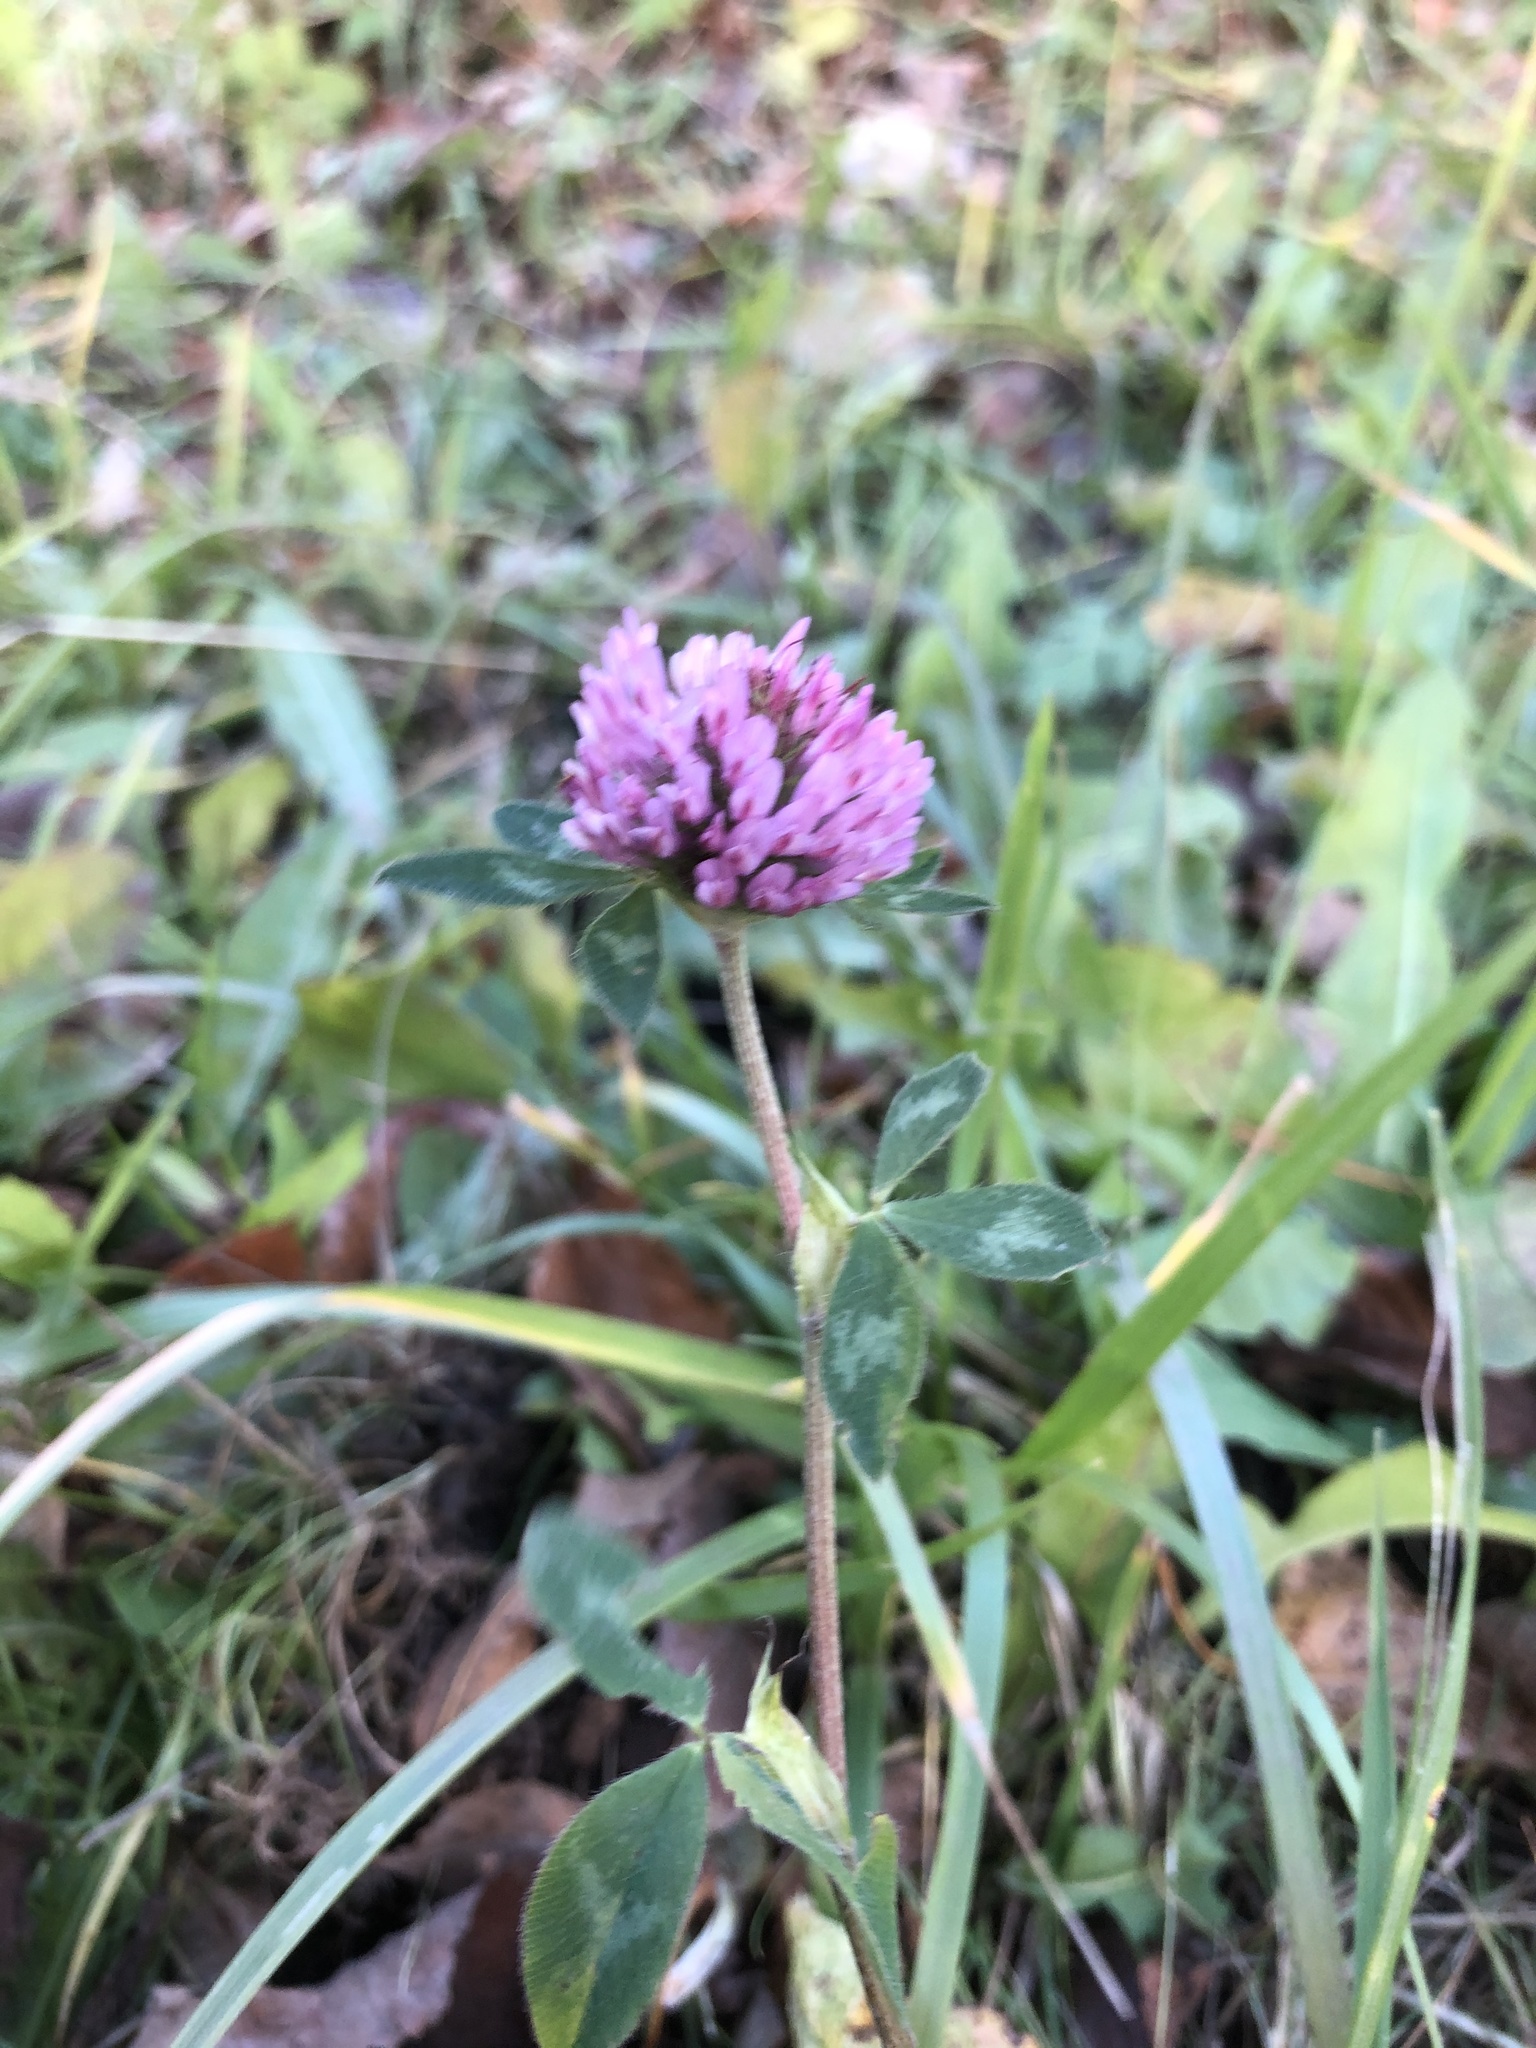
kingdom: Plantae
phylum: Tracheophyta
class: Magnoliopsida
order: Fabales
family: Fabaceae
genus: Trifolium
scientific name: Trifolium pratense
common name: Red clover
